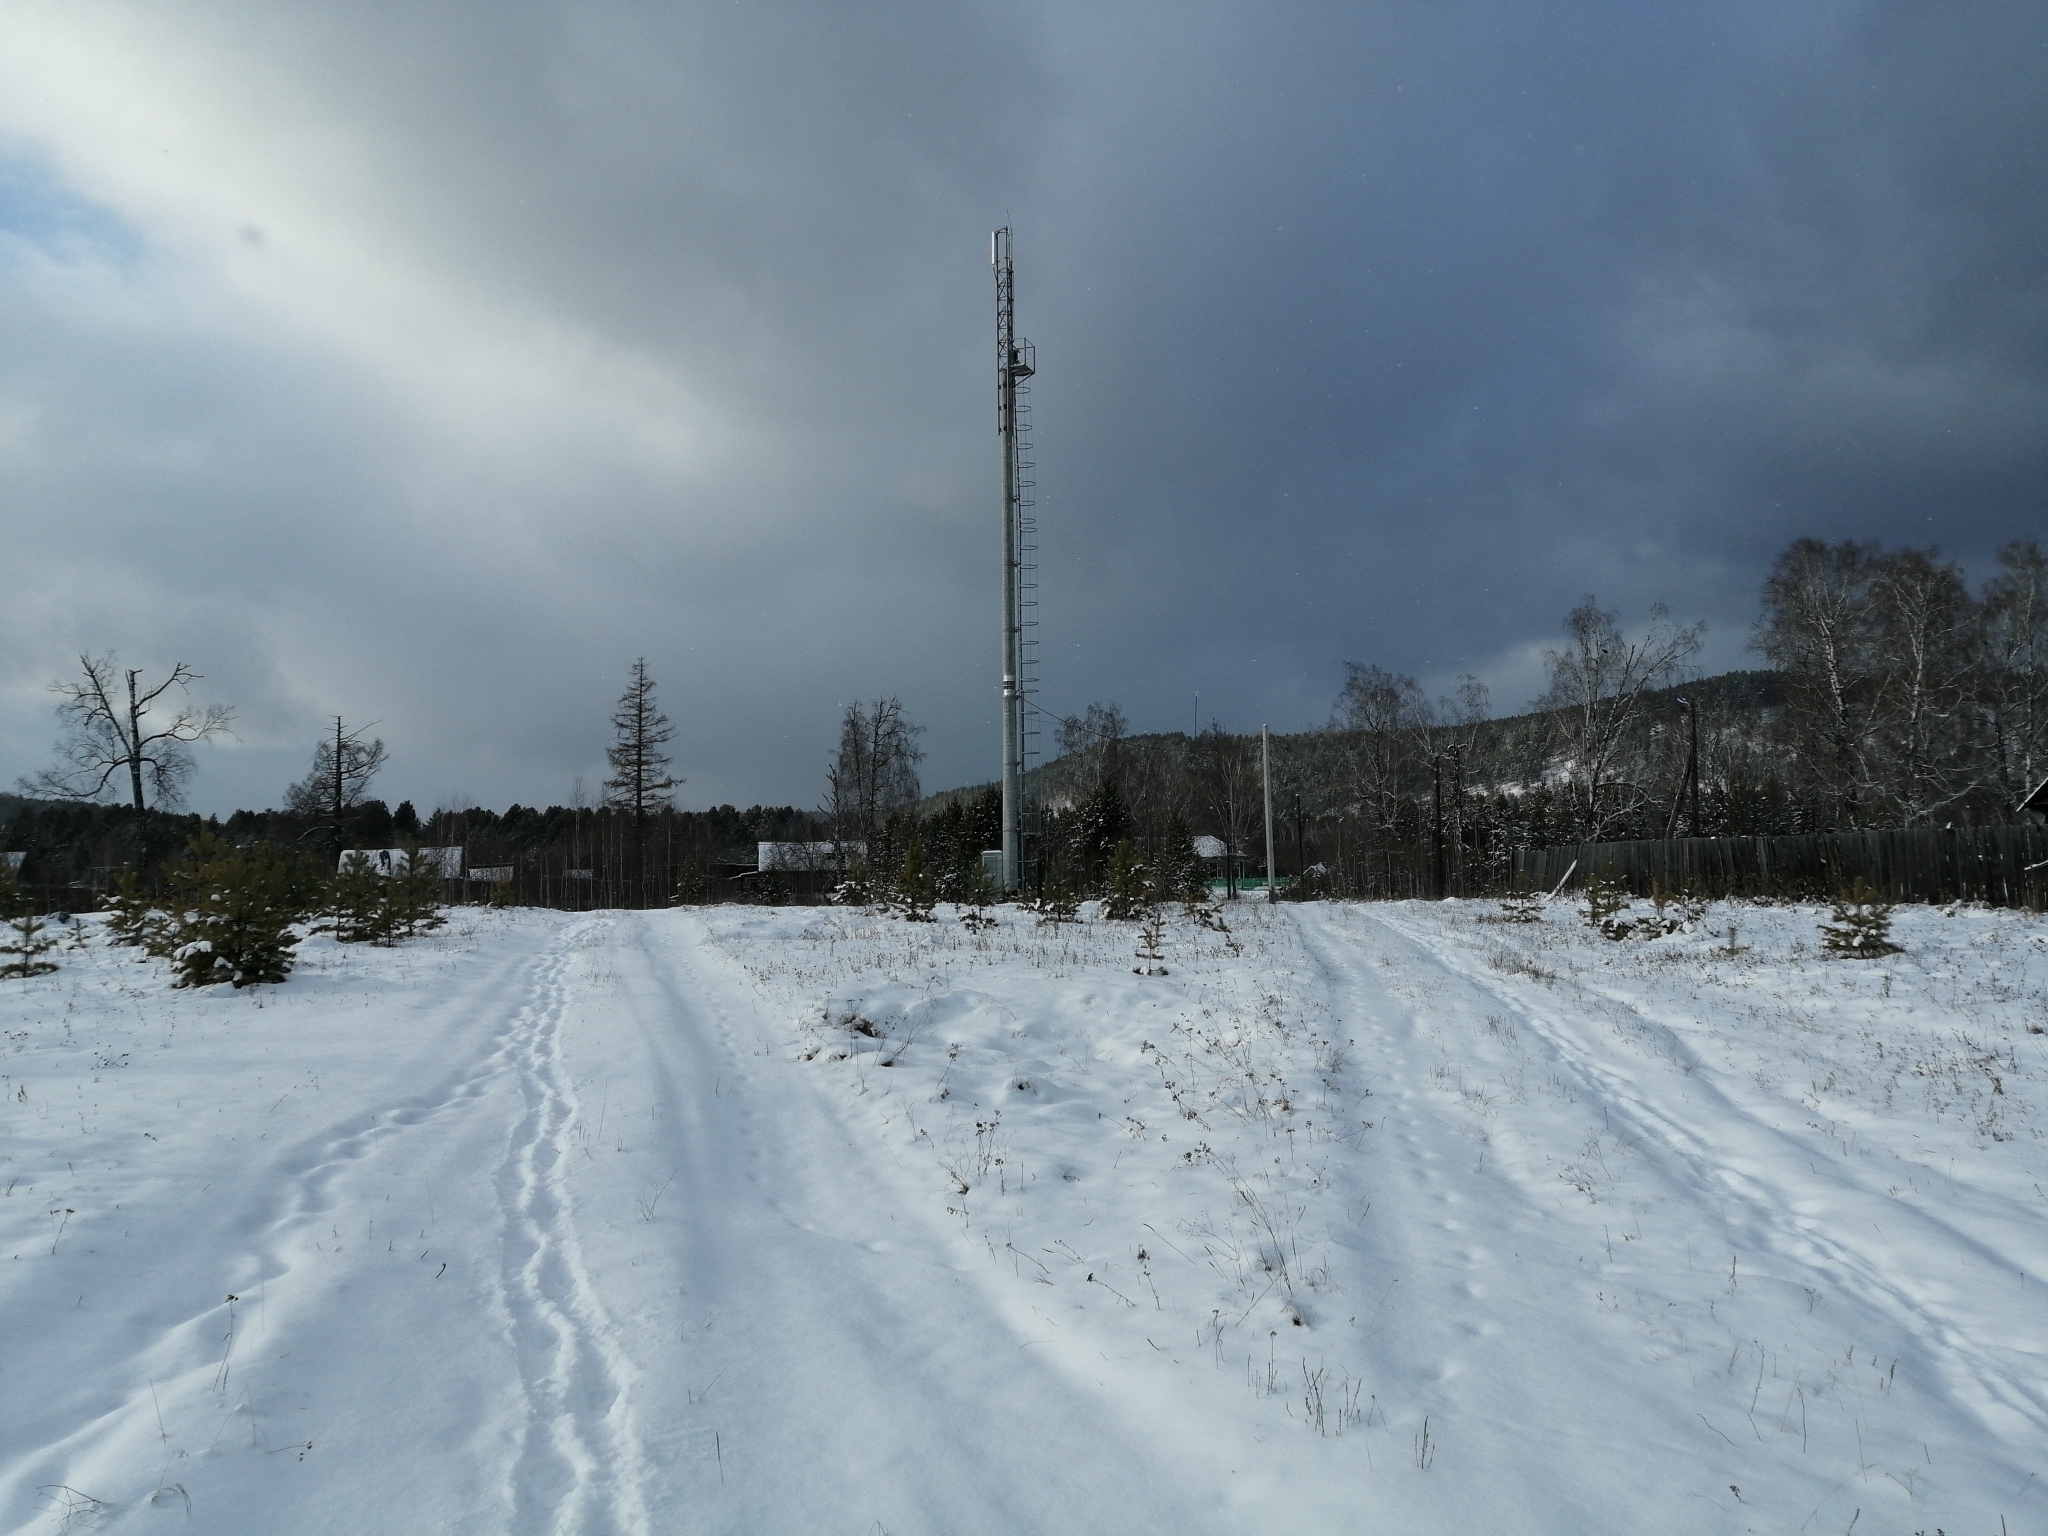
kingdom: Plantae
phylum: Tracheophyta
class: Pinopsida
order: Pinales
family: Pinaceae
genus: Pinus
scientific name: Pinus sylvestris
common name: Scots pine
